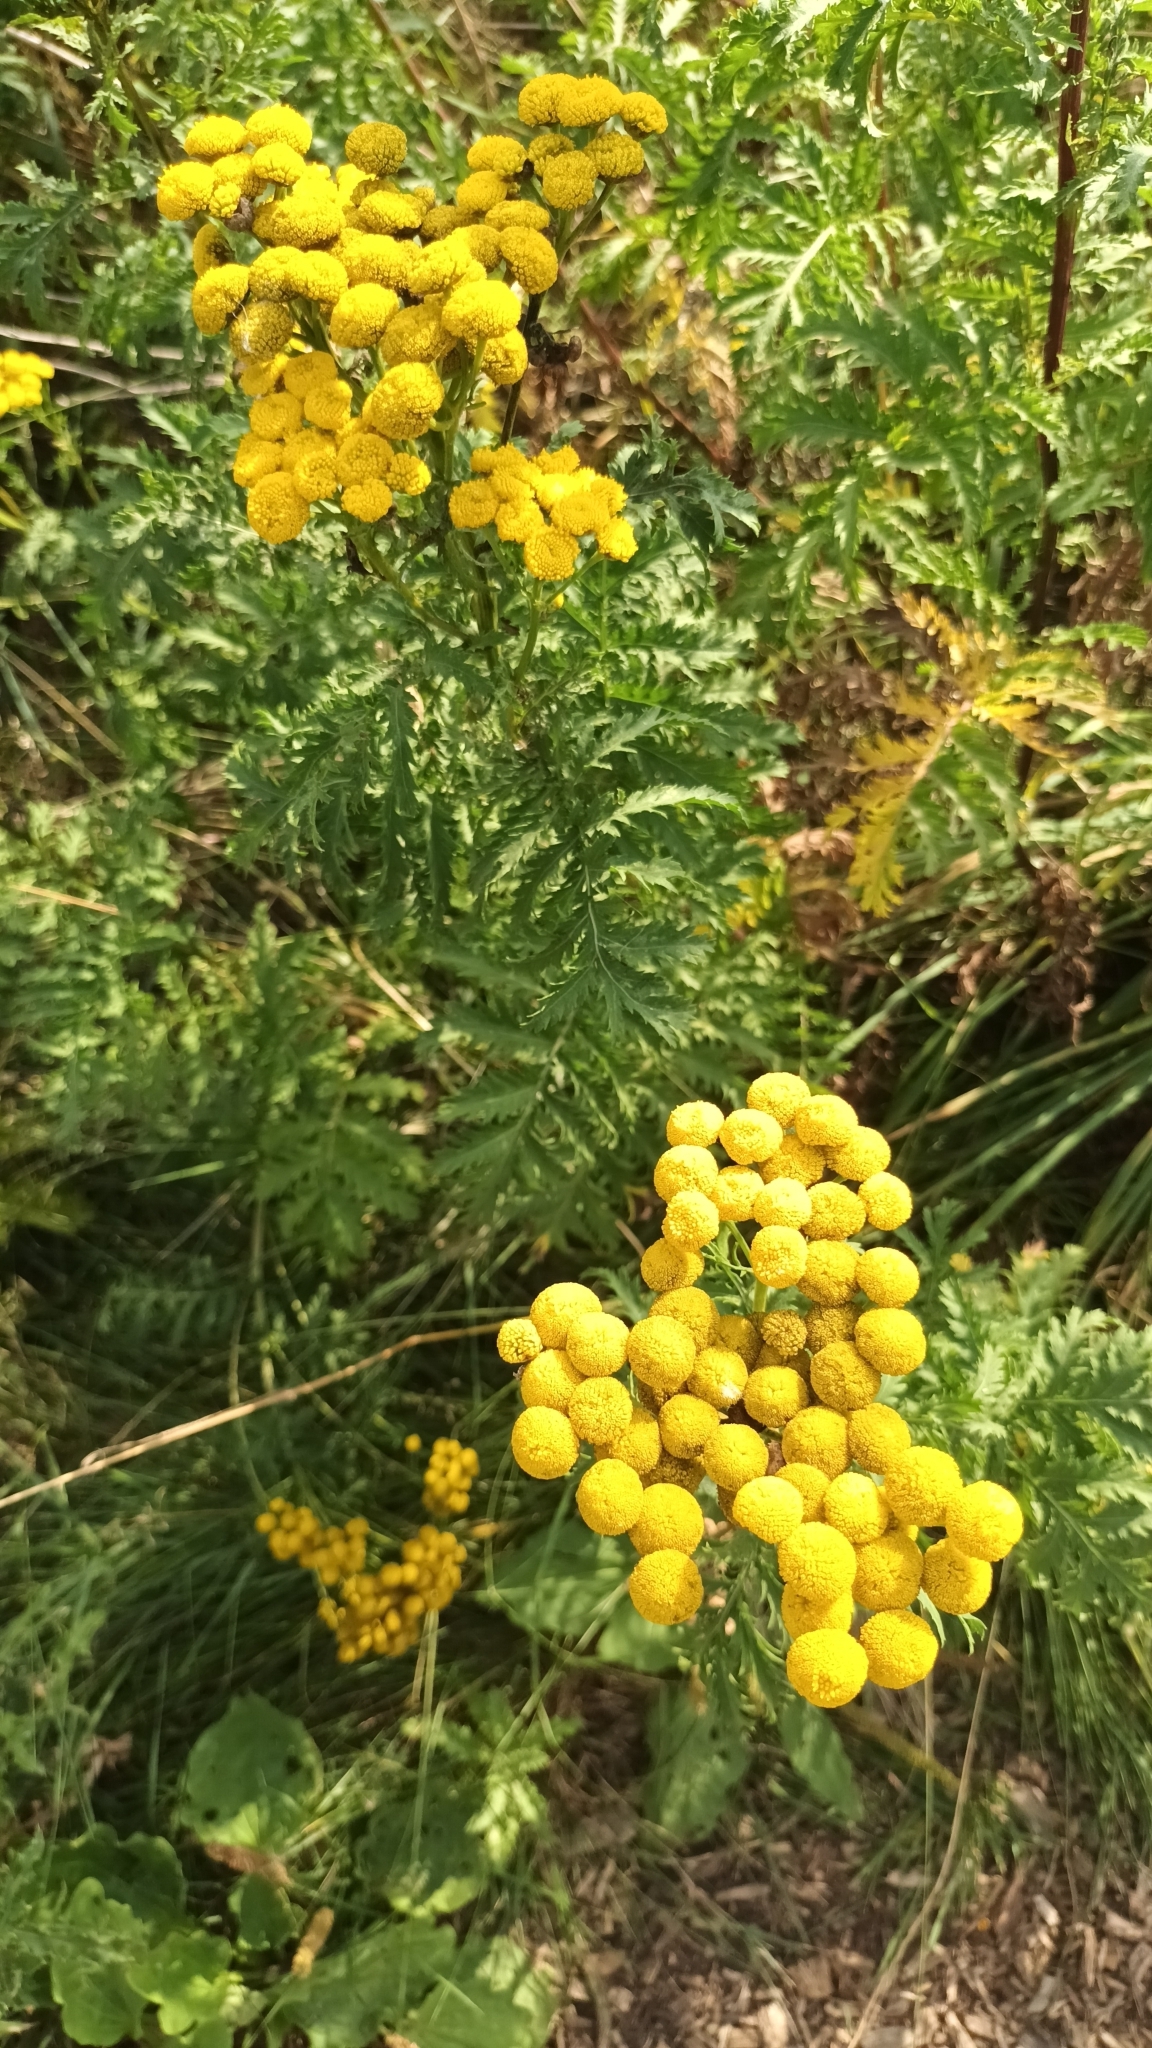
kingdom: Plantae
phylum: Tracheophyta
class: Magnoliopsida
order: Asterales
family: Asteraceae
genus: Tanacetum
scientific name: Tanacetum vulgare
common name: Common tansy
